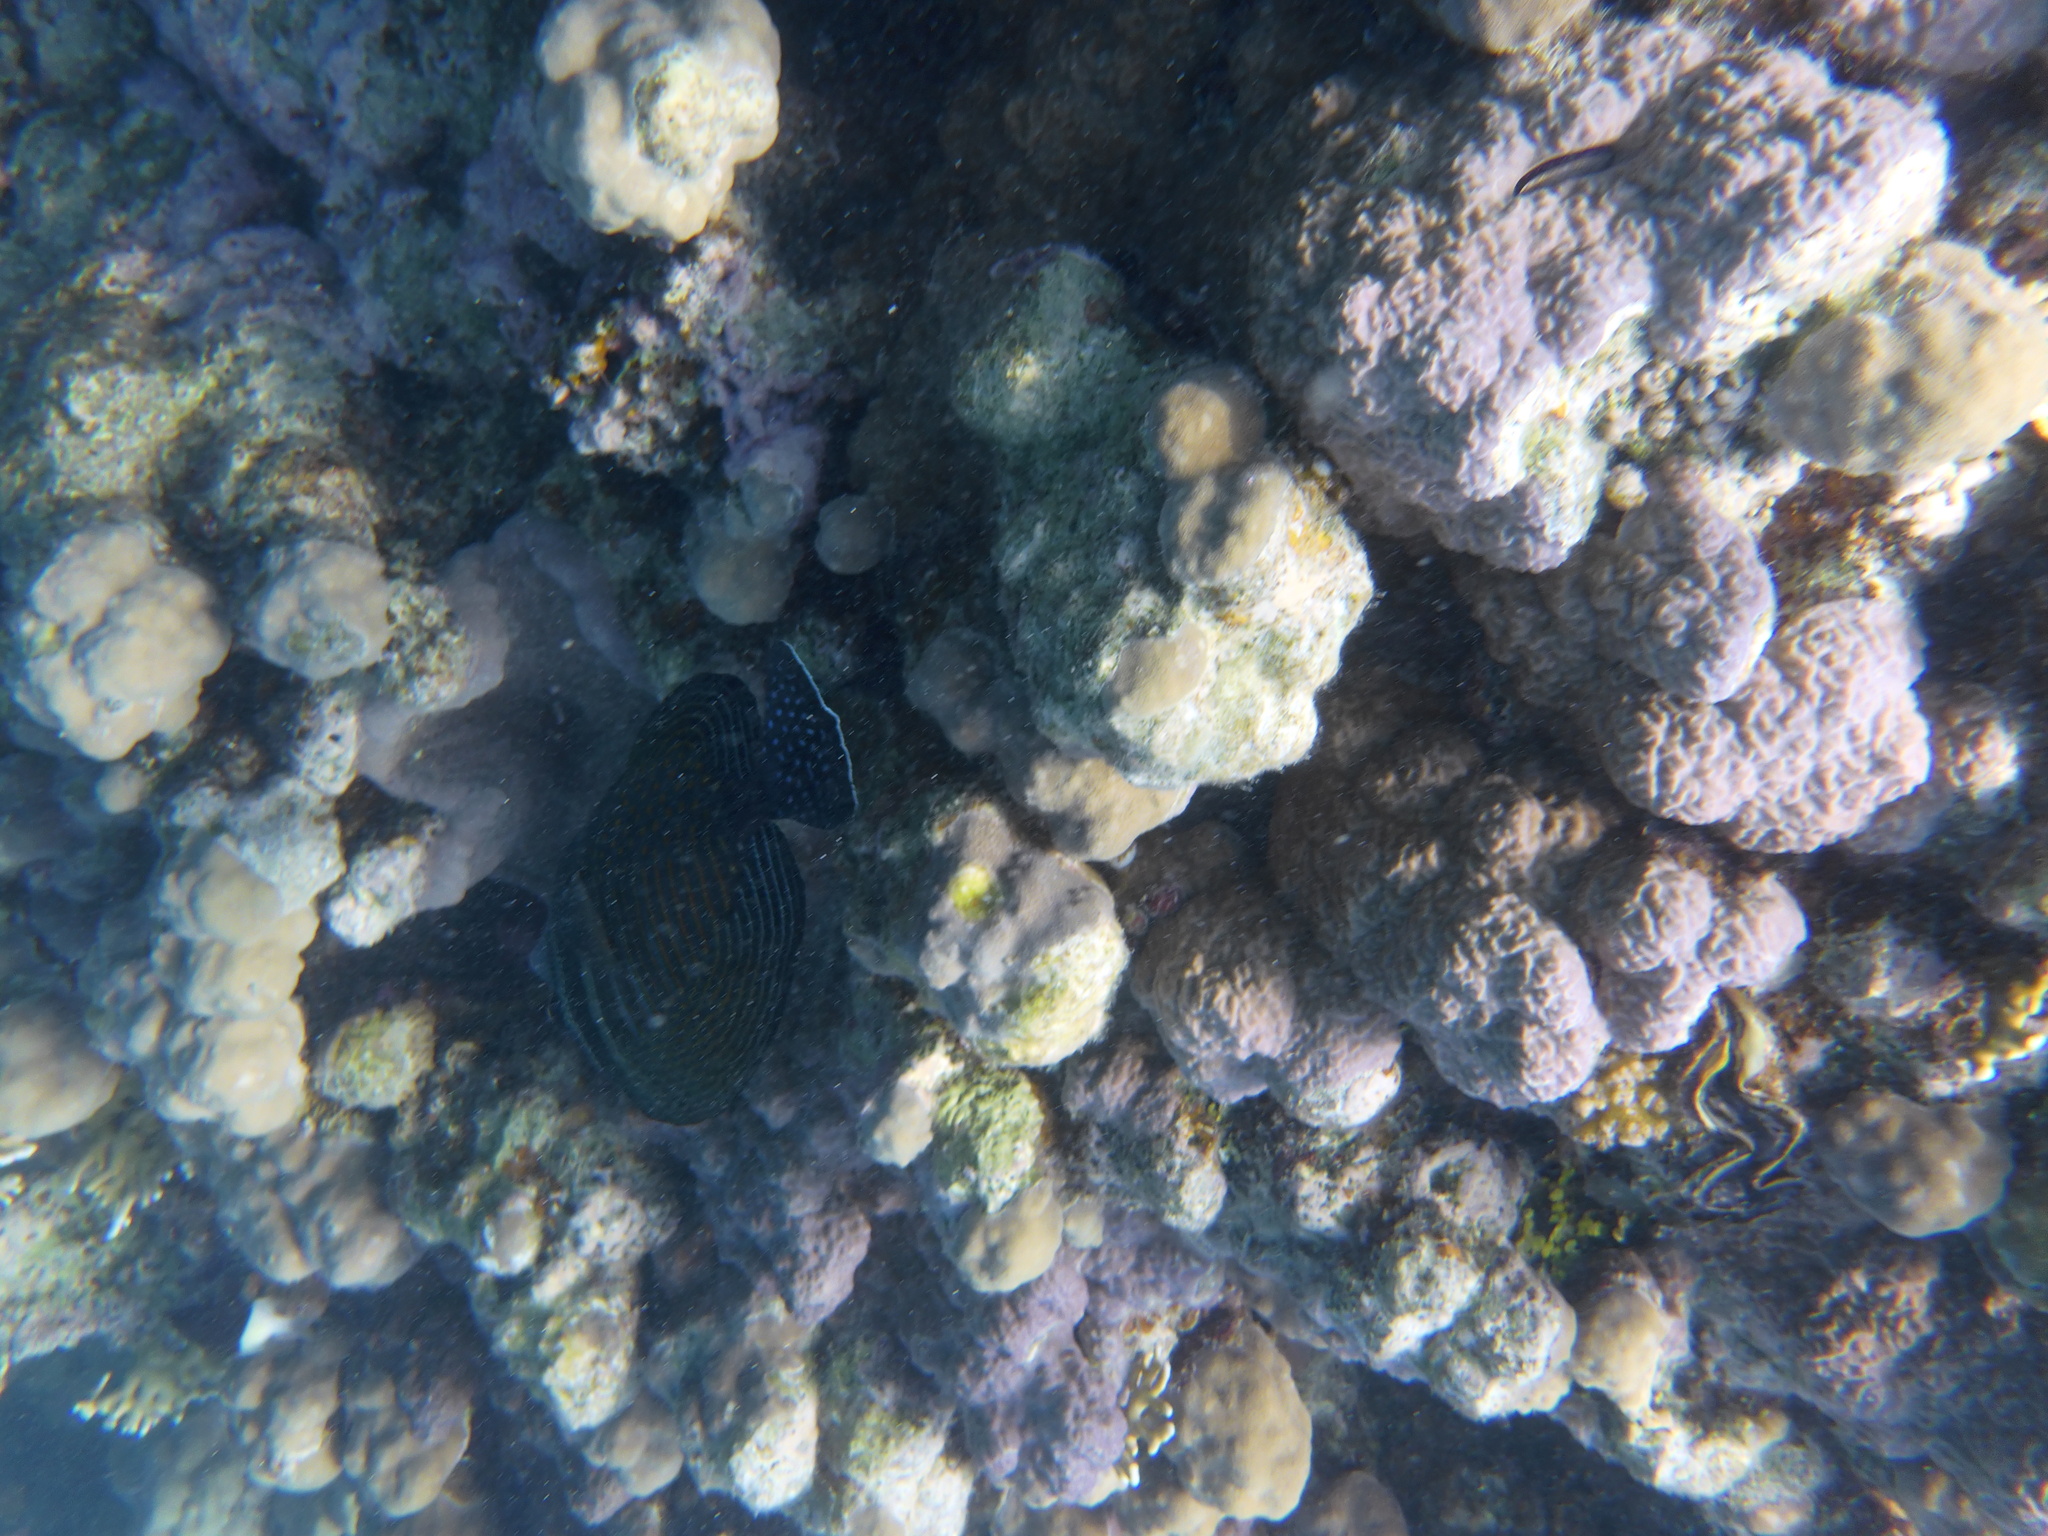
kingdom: Animalia
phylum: Chordata
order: Perciformes
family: Acanthuridae
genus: Zebrasoma
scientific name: Zebrasoma desjardinii
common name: Desjardin's sailfin tang
